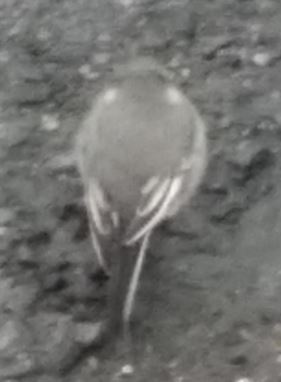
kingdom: Animalia
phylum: Chordata
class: Aves
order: Passeriformes
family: Motacillidae
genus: Motacilla
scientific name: Motacilla alba
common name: White wagtail
